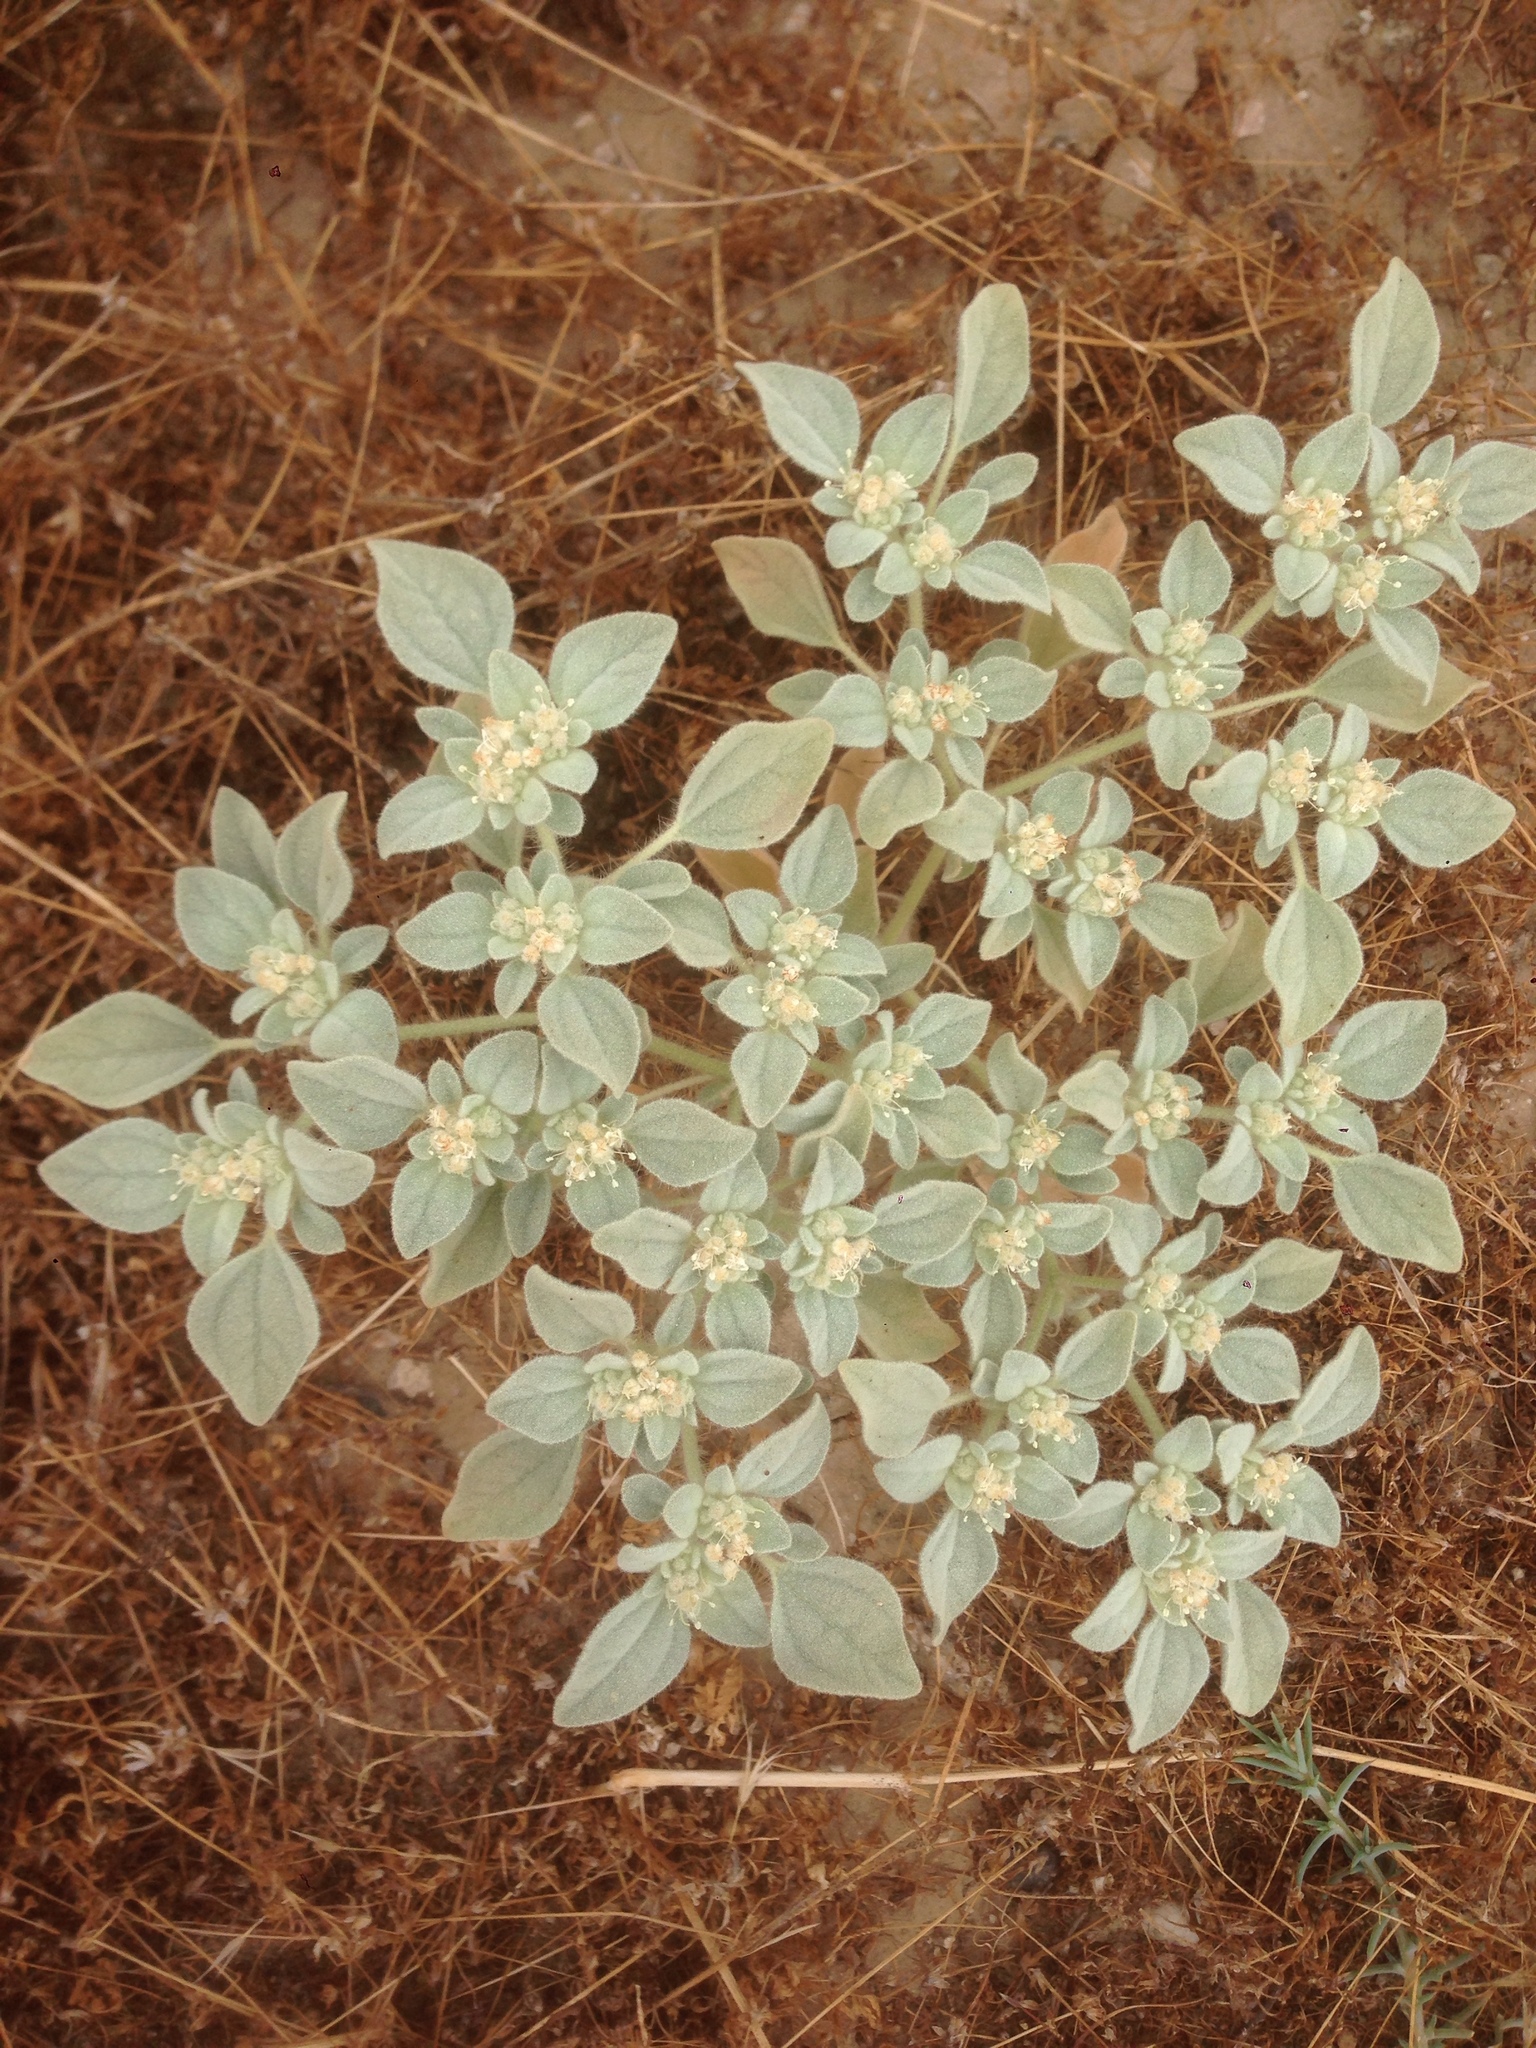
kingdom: Plantae
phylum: Tracheophyta
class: Magnoliopsida
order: Malpighiales
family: Euphorbiaceae
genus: Croton
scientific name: Croton setiger
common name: Dove weed
